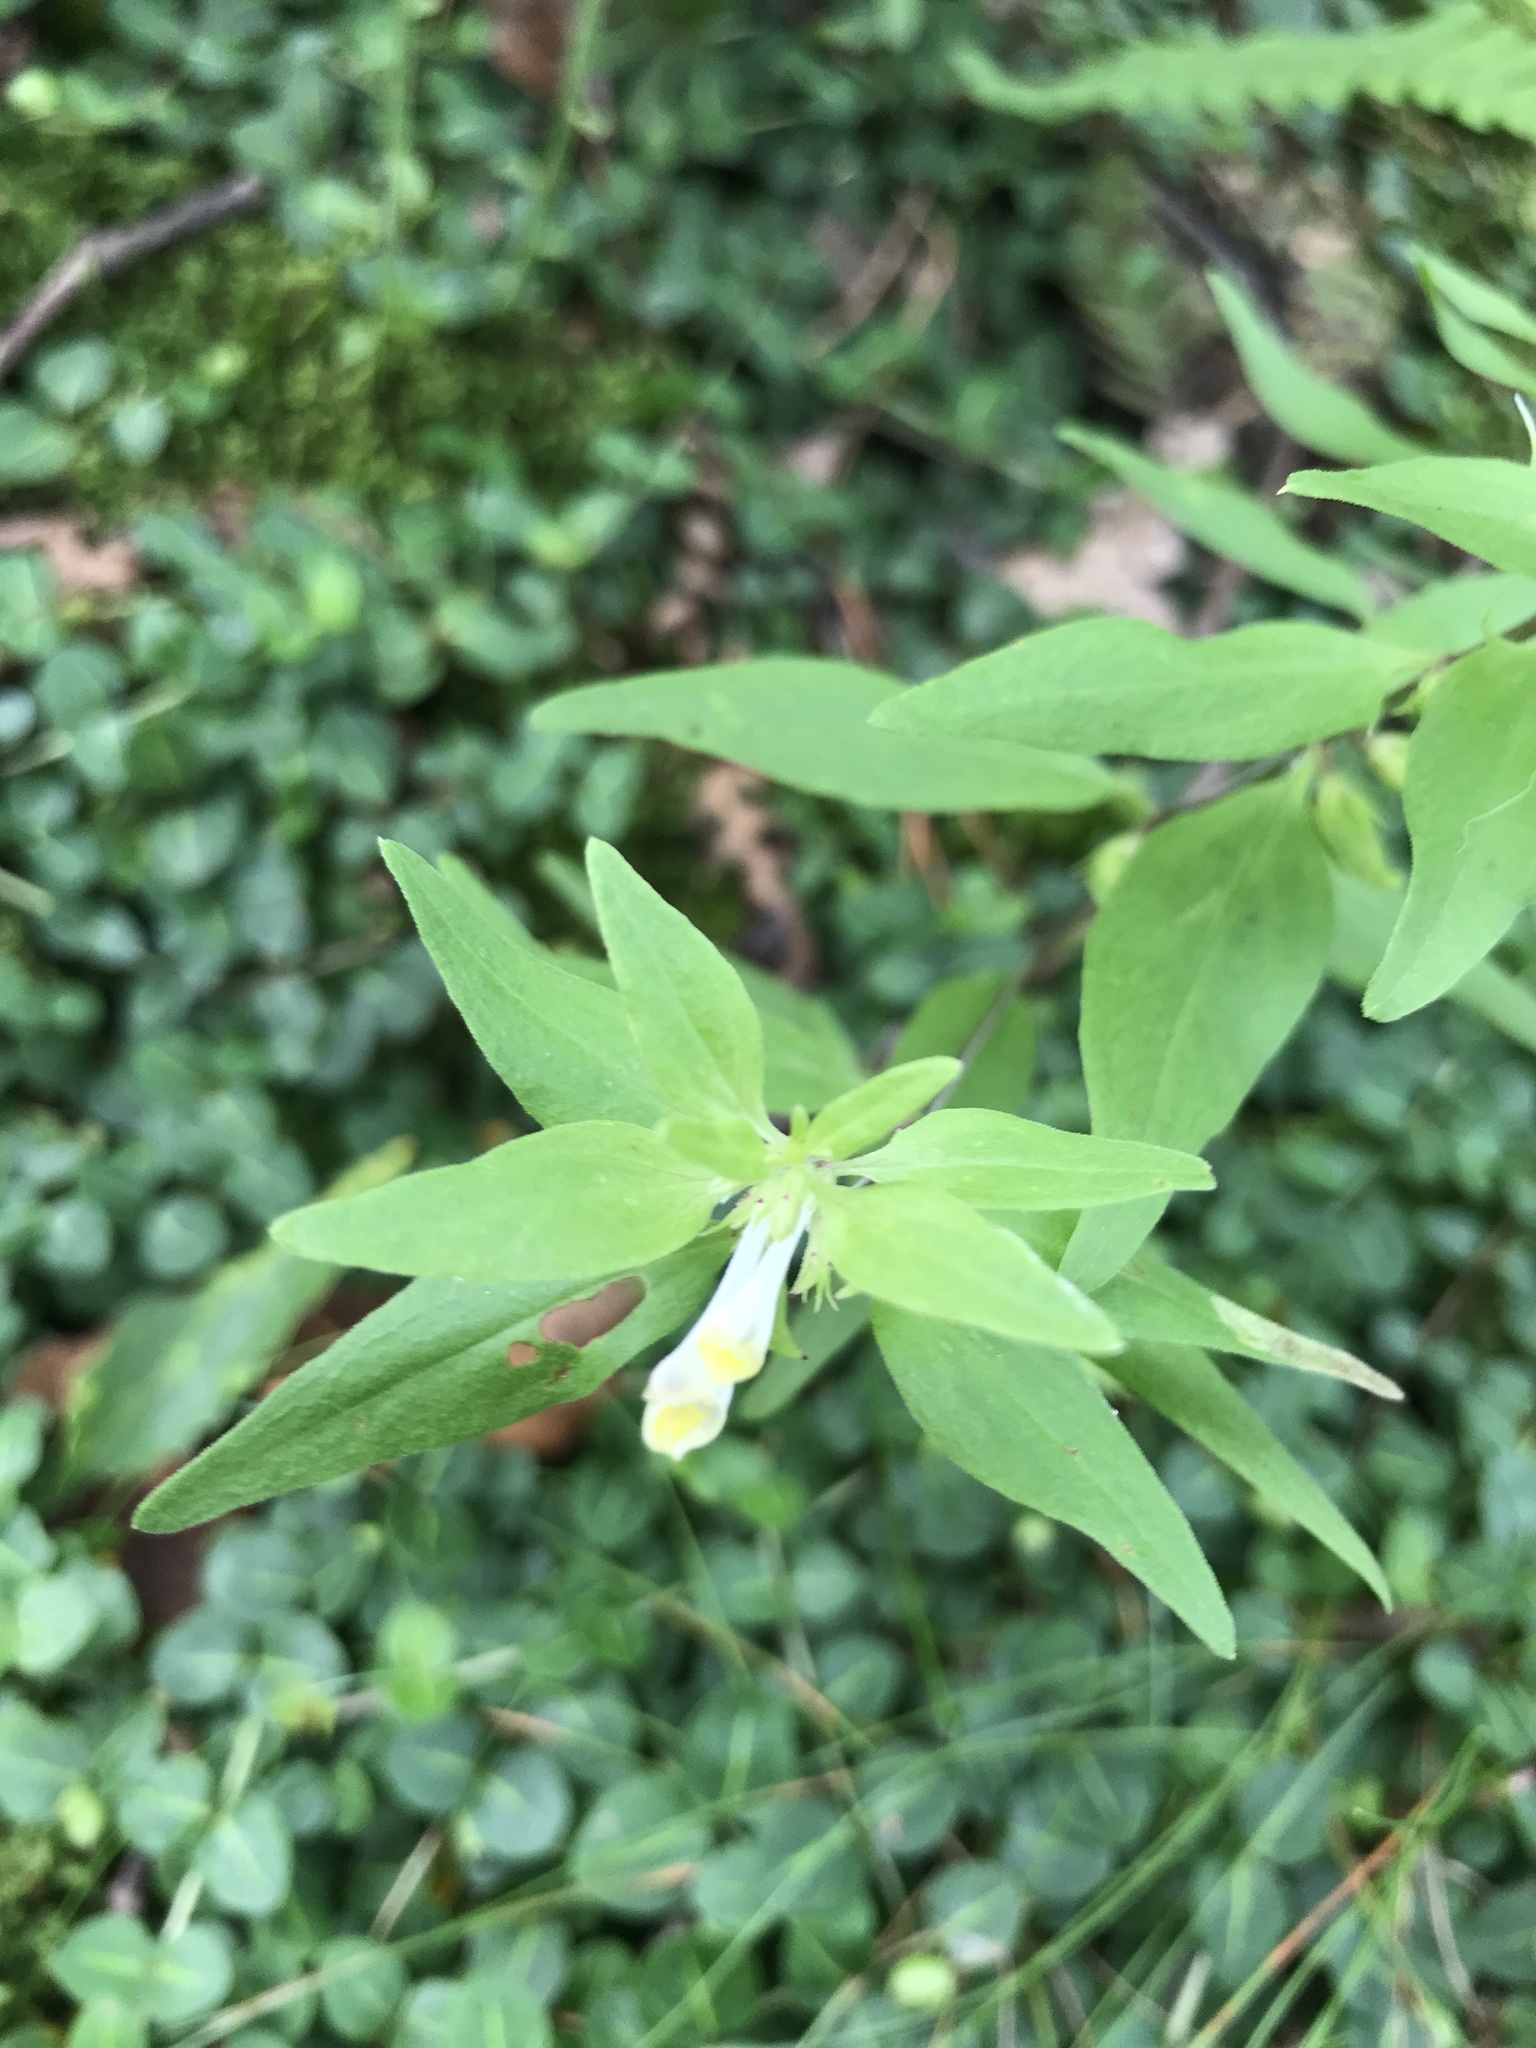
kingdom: Plantae
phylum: Tracheophyta
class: Magnoliopsida
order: Lamiales
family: Orobanchaceae
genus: Melampyrum
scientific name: Melampyrum lineare
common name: American cow-wheat
